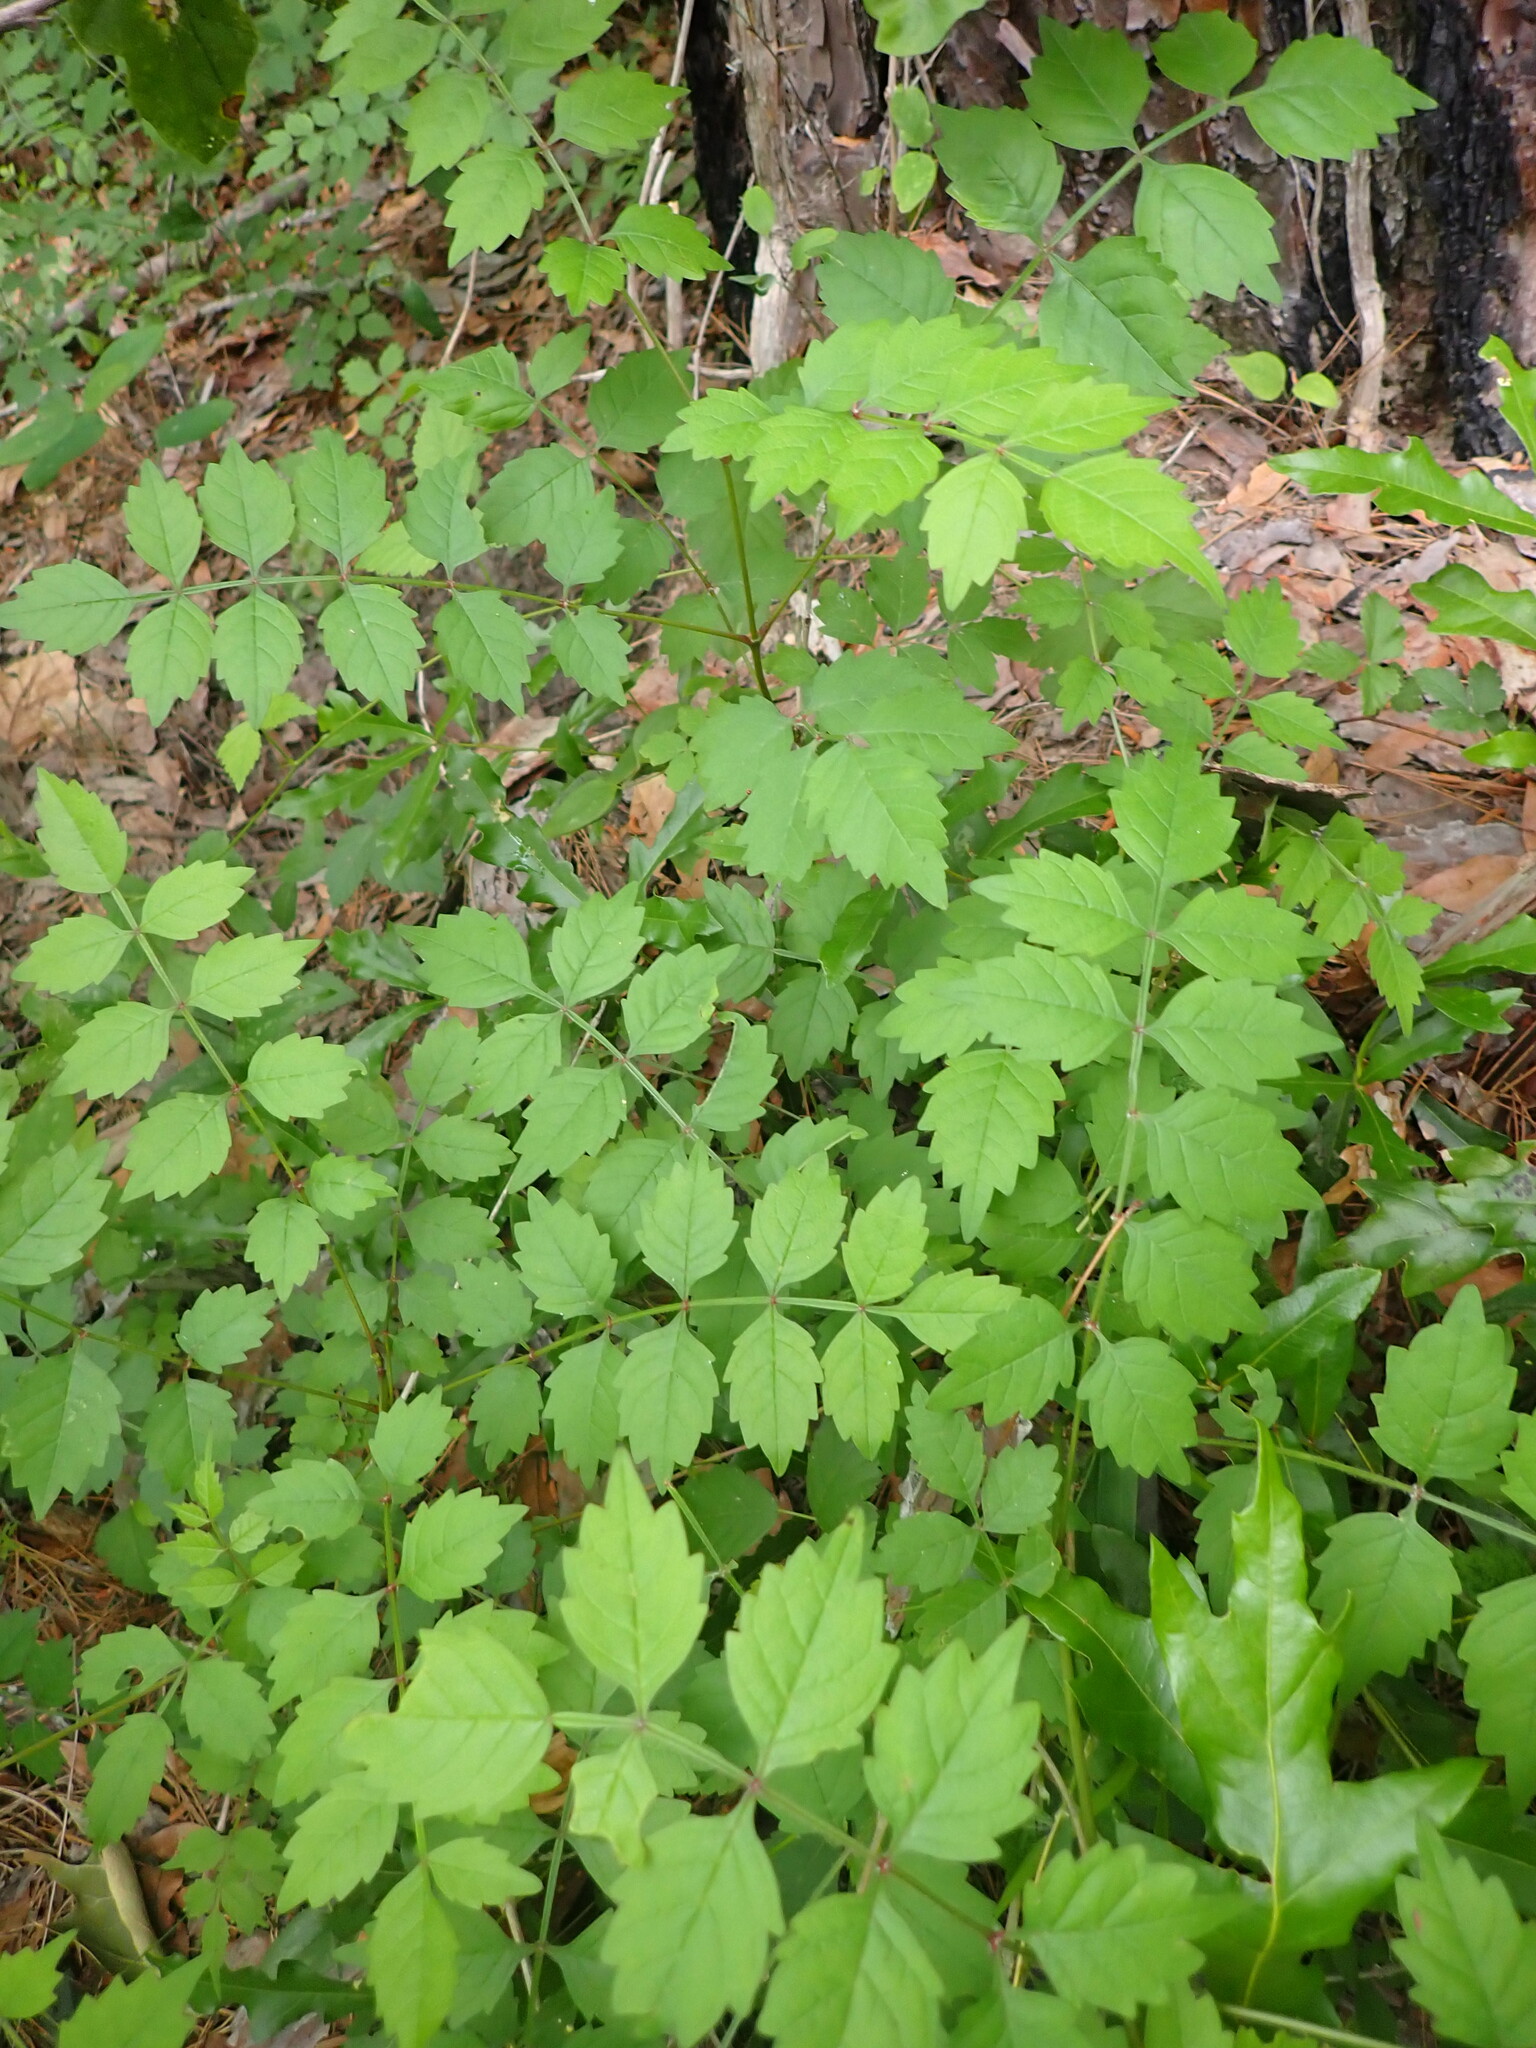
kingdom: Plantae
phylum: Tracheophyta
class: Magnoliopsida
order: Lamiales
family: Bignoniaceae
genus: Campsis
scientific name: Campsis radicans
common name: Trumpet-creeper
